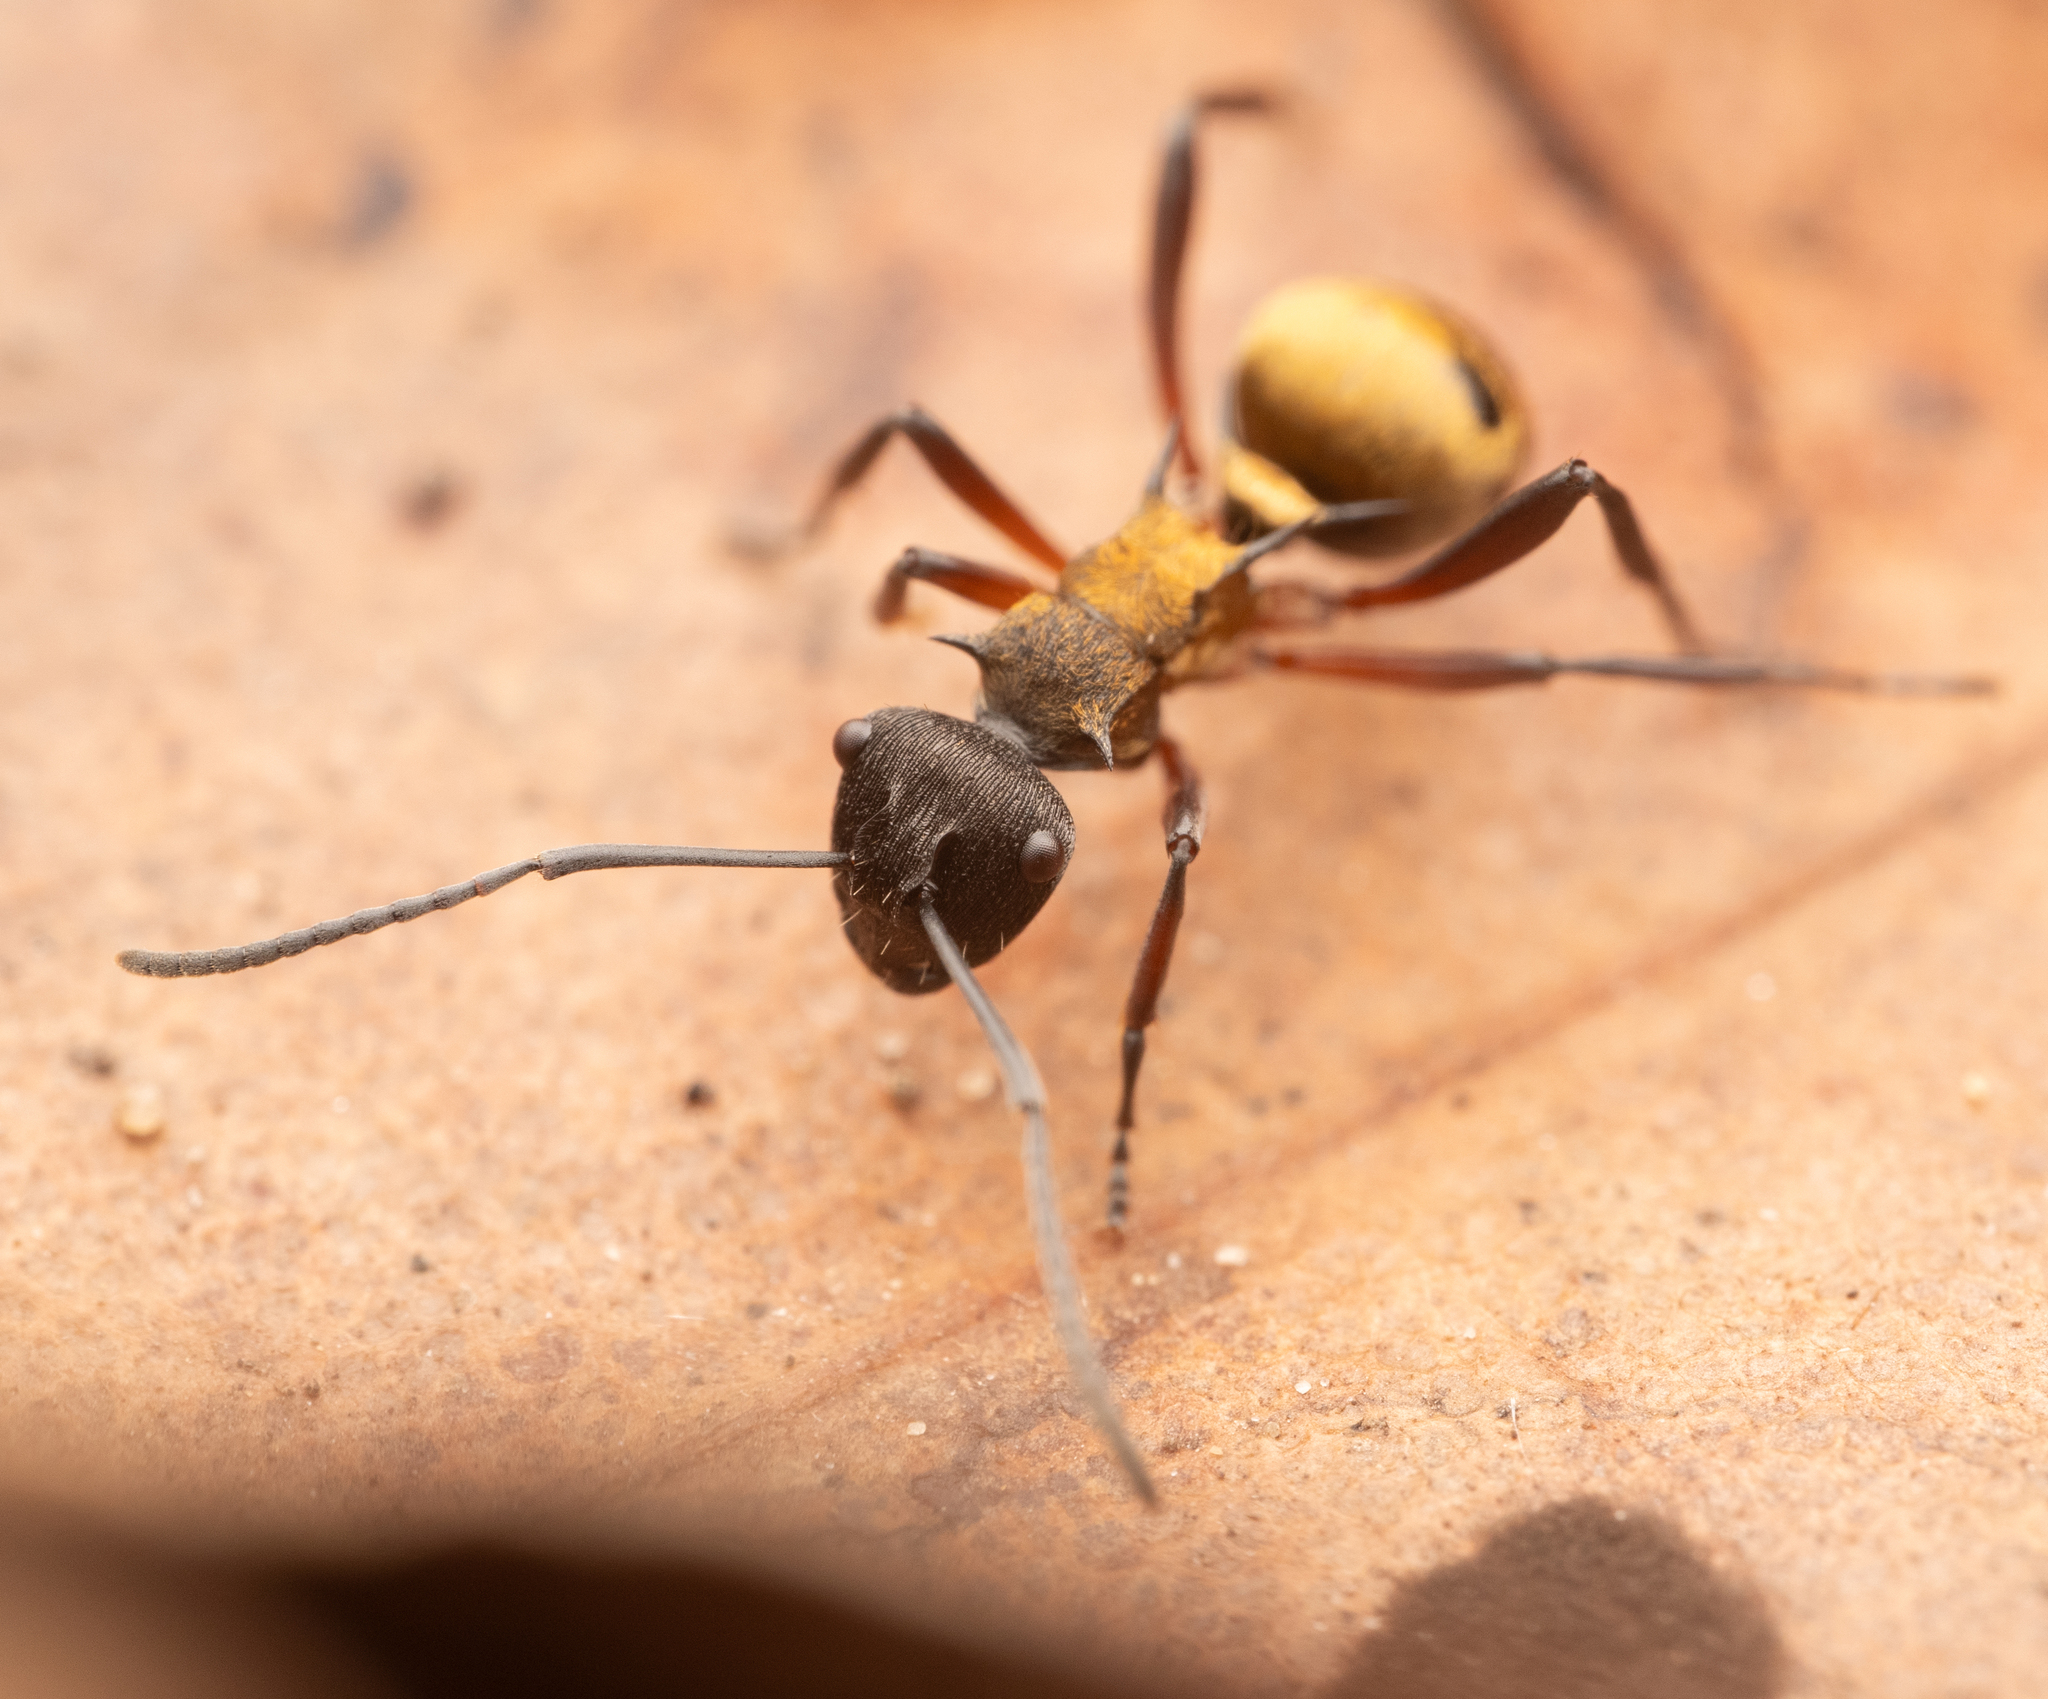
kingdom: Animalia
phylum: Arthropoda
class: Insecta
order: Hymenoptera
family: Formicidae
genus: Polyrhachis
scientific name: Polyrhachis rufifemur
